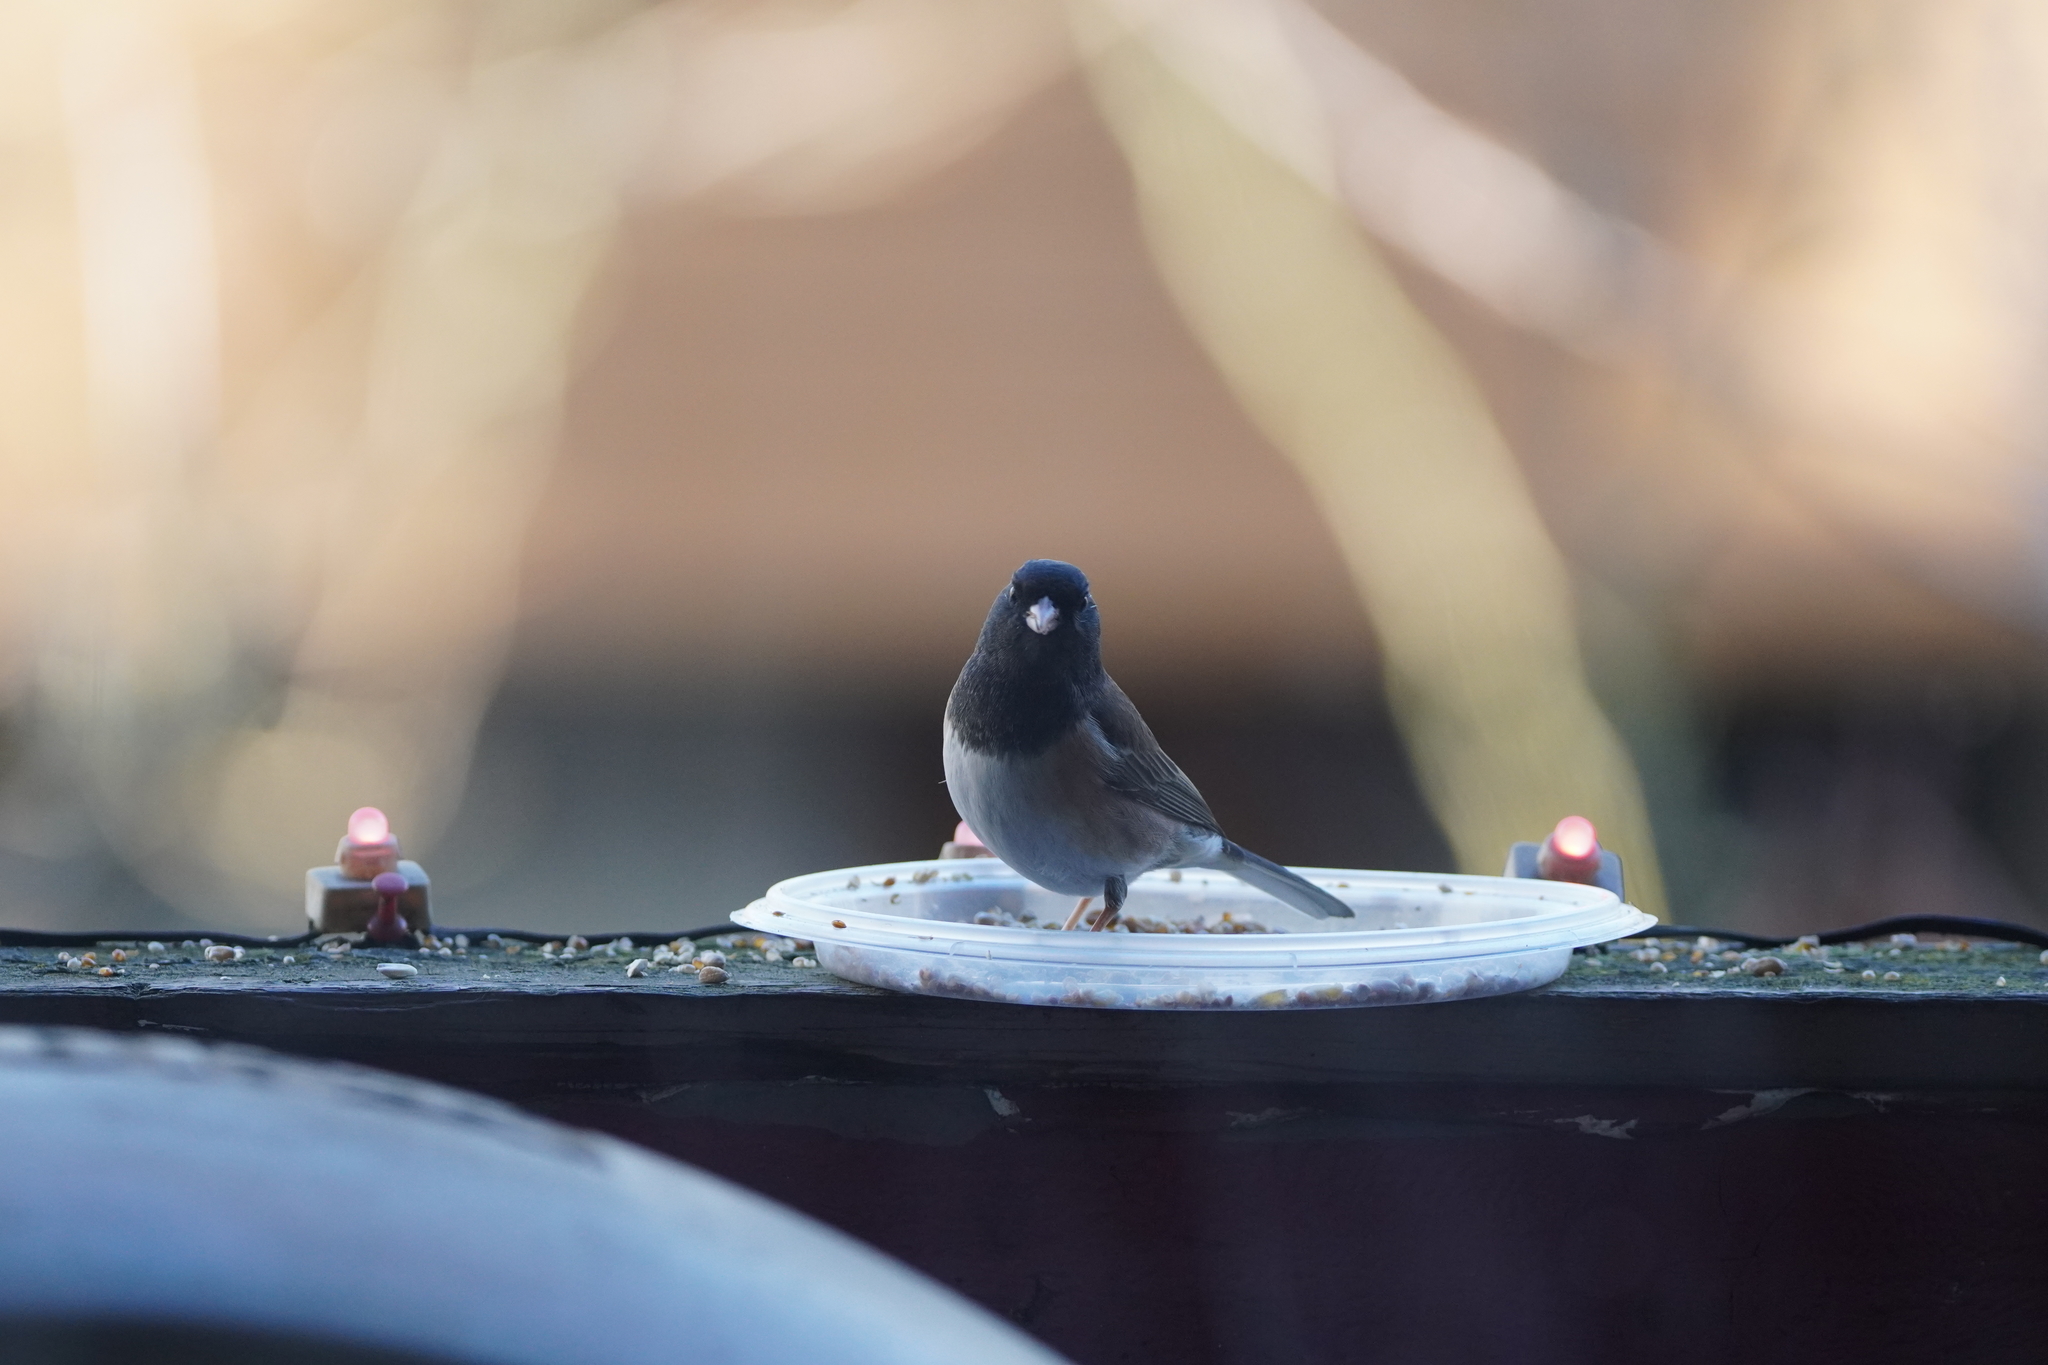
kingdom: Animalia
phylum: Chordata
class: Aves
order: Passeriformes
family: Passerellidae
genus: Junco
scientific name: Junco hyemalis
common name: Dark-eyed junco
